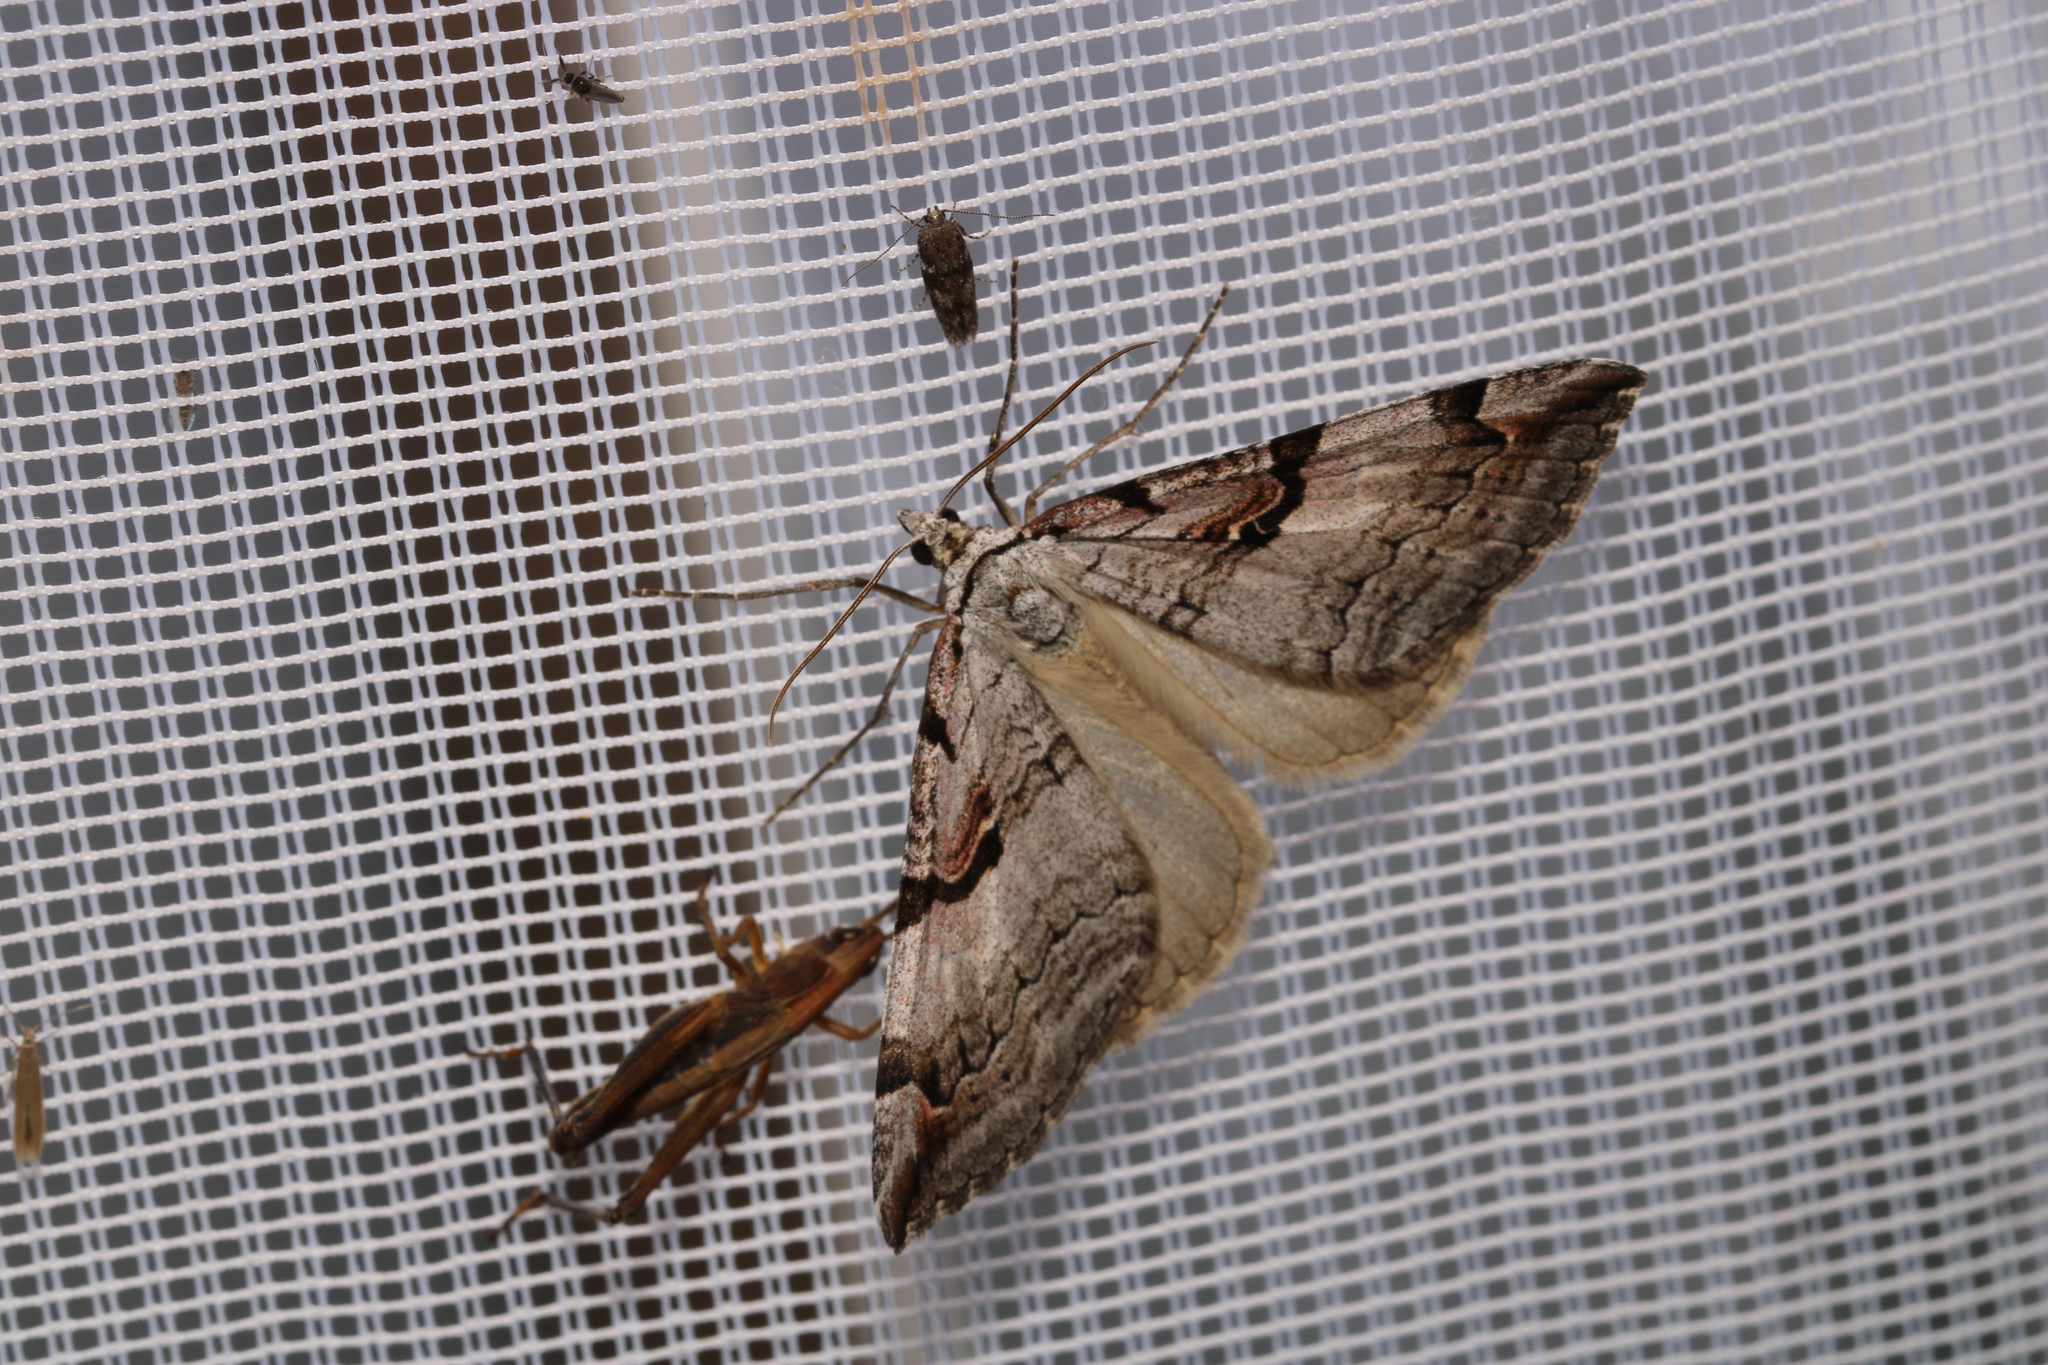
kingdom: Animalia
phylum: Arthropoda
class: Insecta
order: Lepidoptera
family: Geometridae
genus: Aplocera
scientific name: Aplocera praeformata
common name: Purple treble-bar
